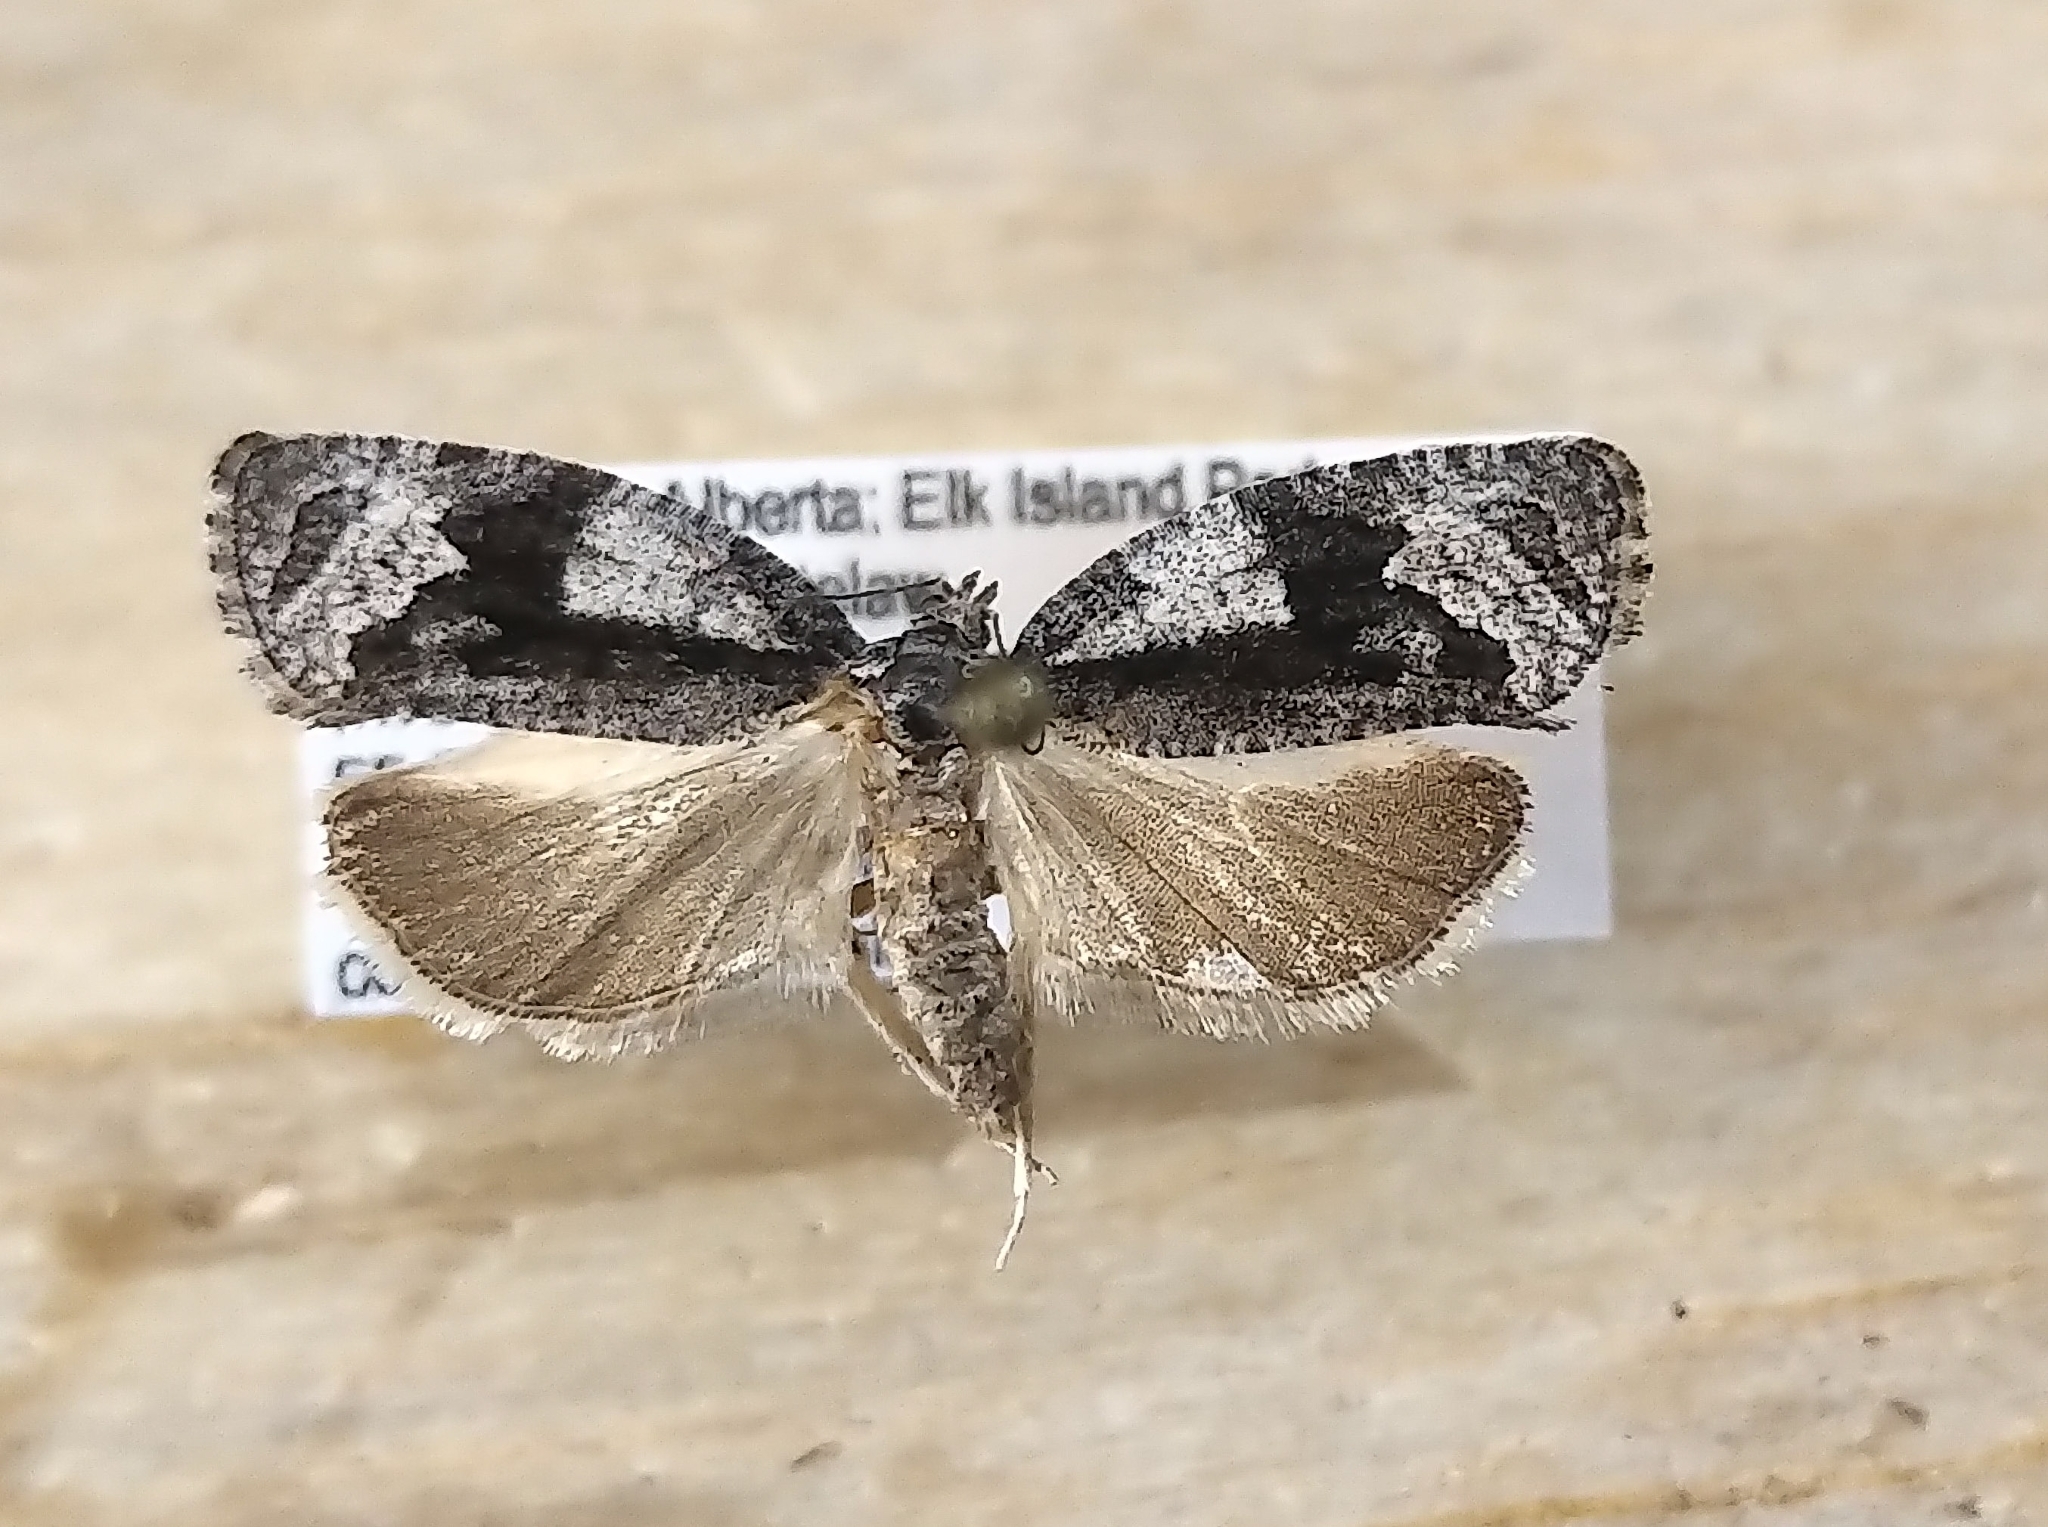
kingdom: Animalia
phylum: Arthropoda
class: Insecta
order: Lepidoptera
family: Tortricidae
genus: Apotomis
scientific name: Apotomis removana
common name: Green aspen leafroller
